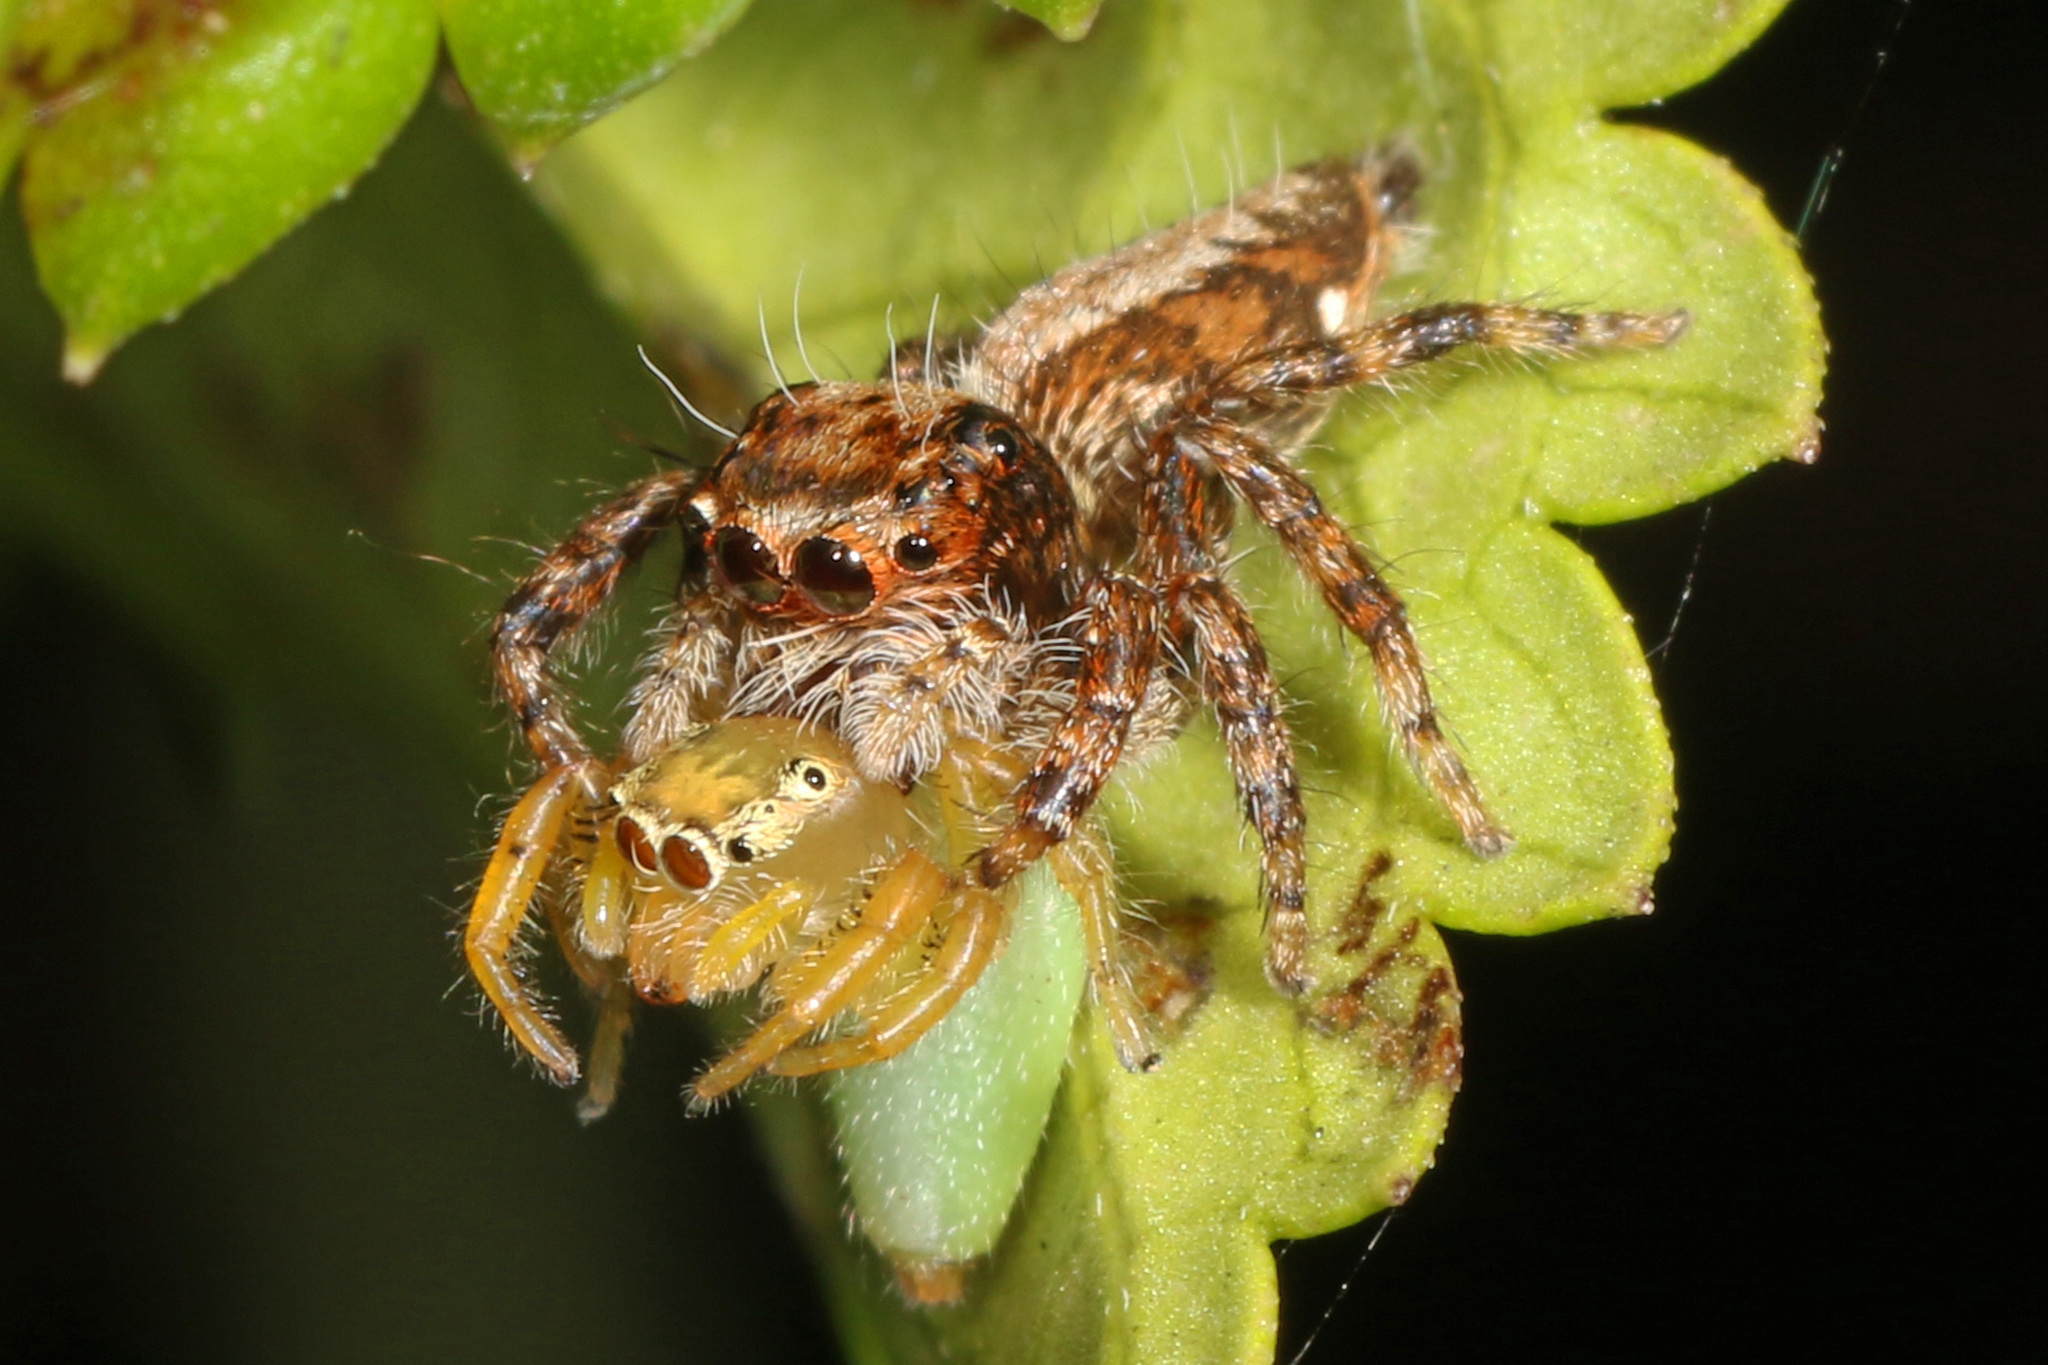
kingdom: Animalia
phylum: Arthropoda
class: Arachnida
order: Araneae
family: Salticidae
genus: Thyene
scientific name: Thyene ogdeni
